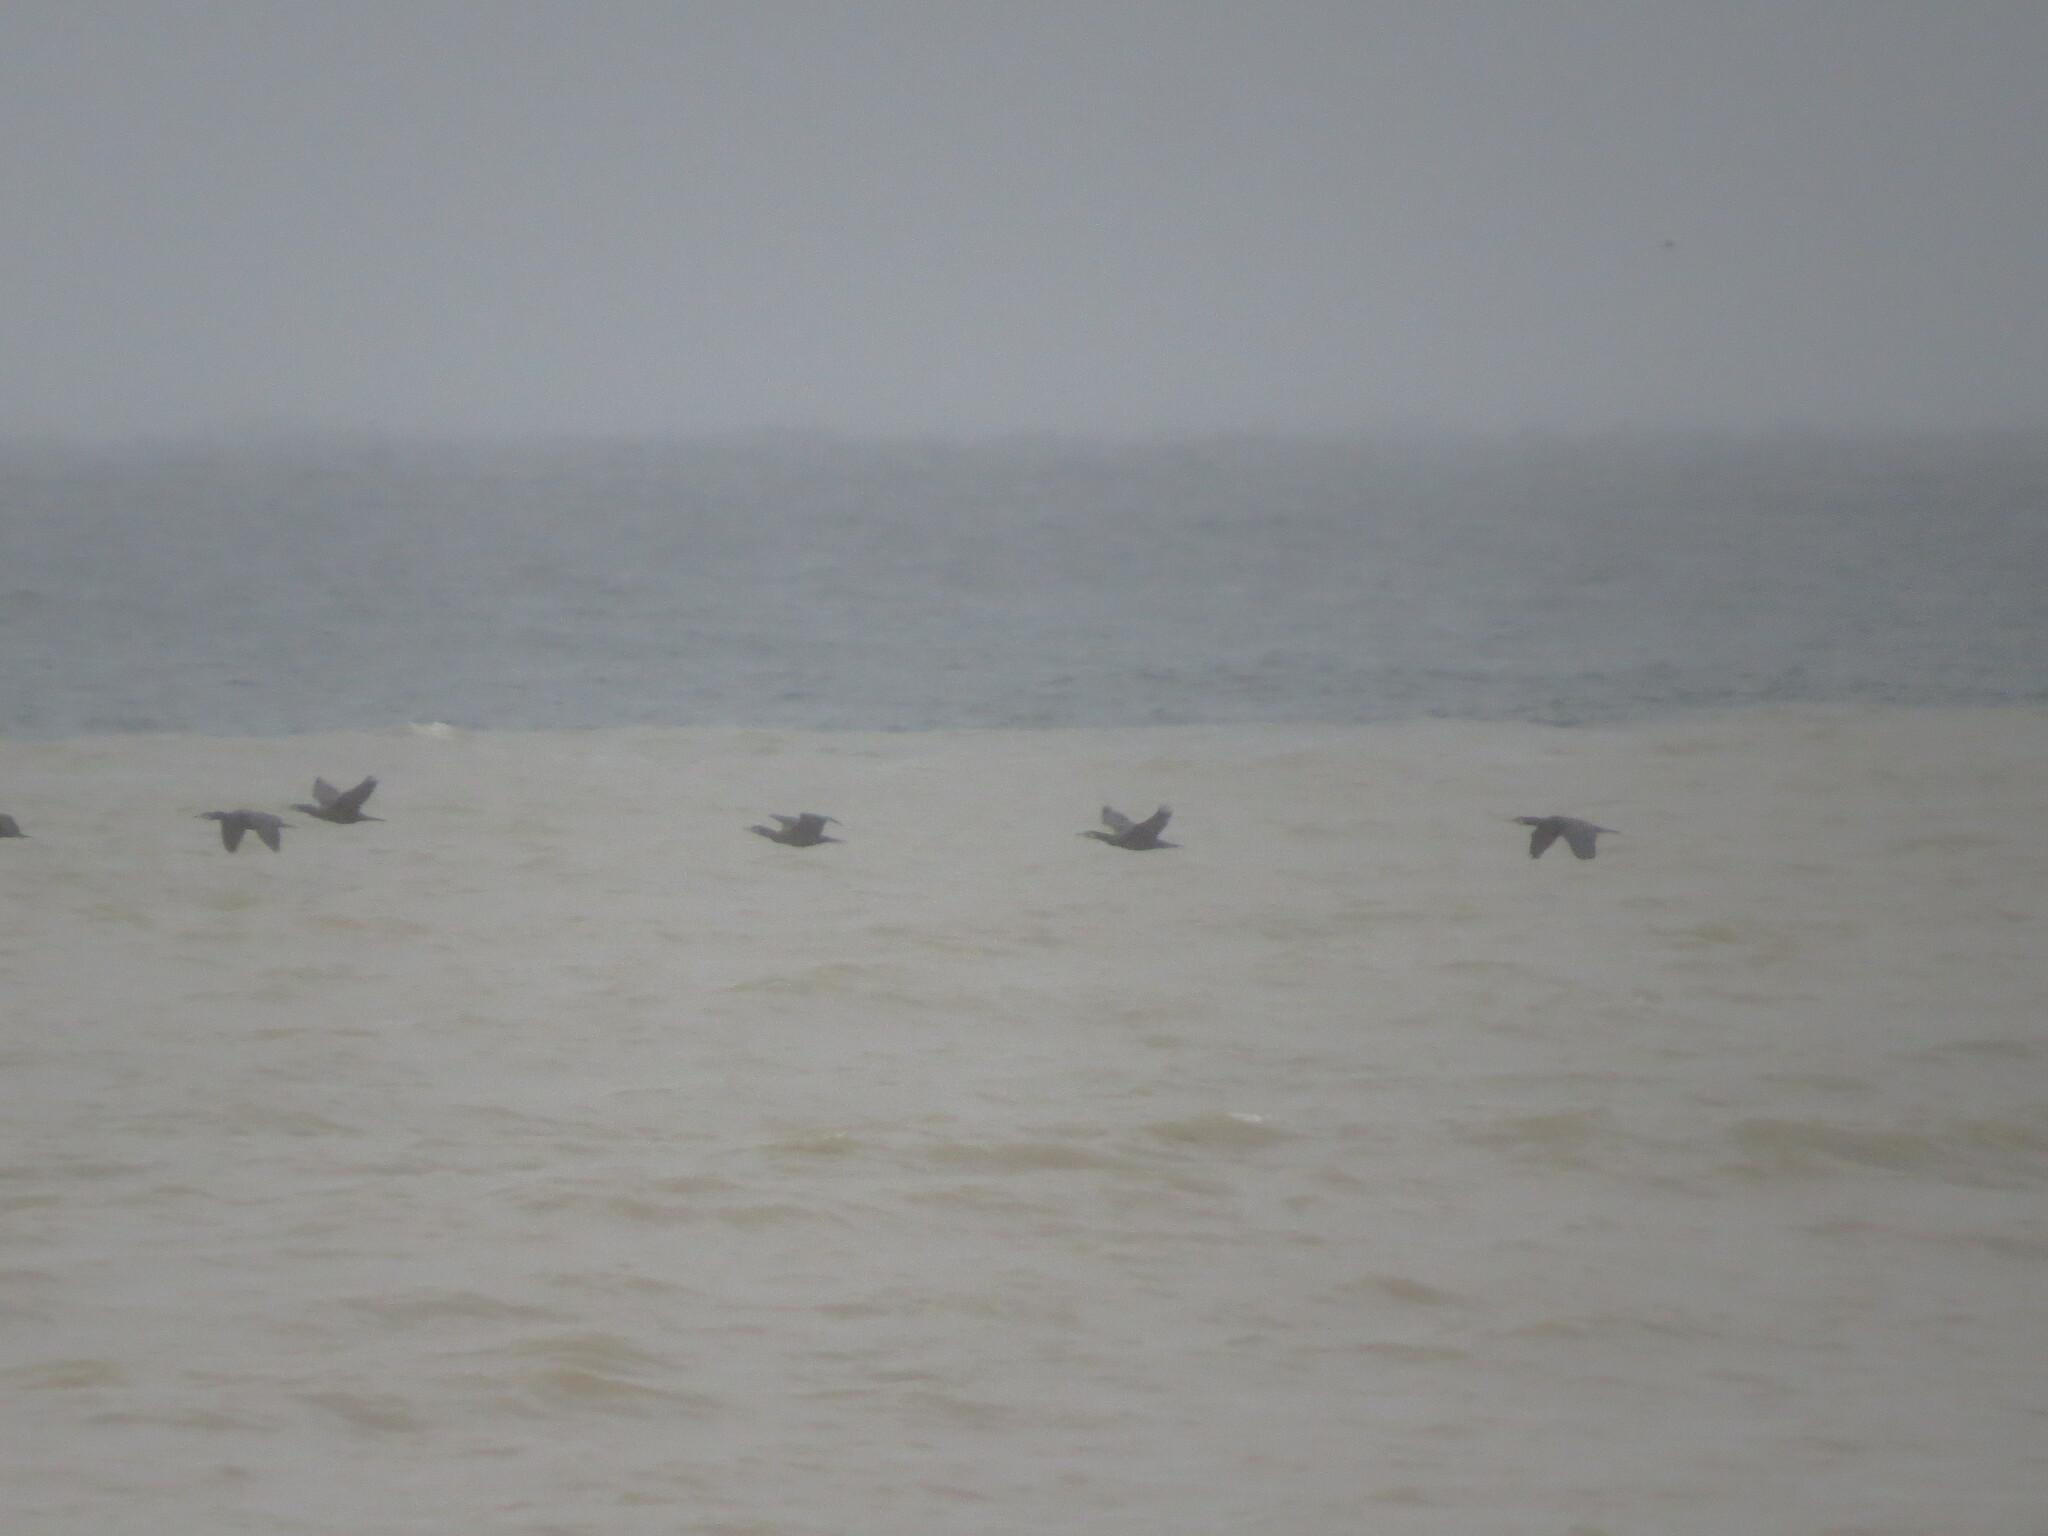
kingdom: Animalia
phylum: Chordata
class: Aves
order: Suliformes
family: Phalacrocoracidae
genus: Phalacrocorax
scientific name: Phalacrocorax carbo
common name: Great cormorant
